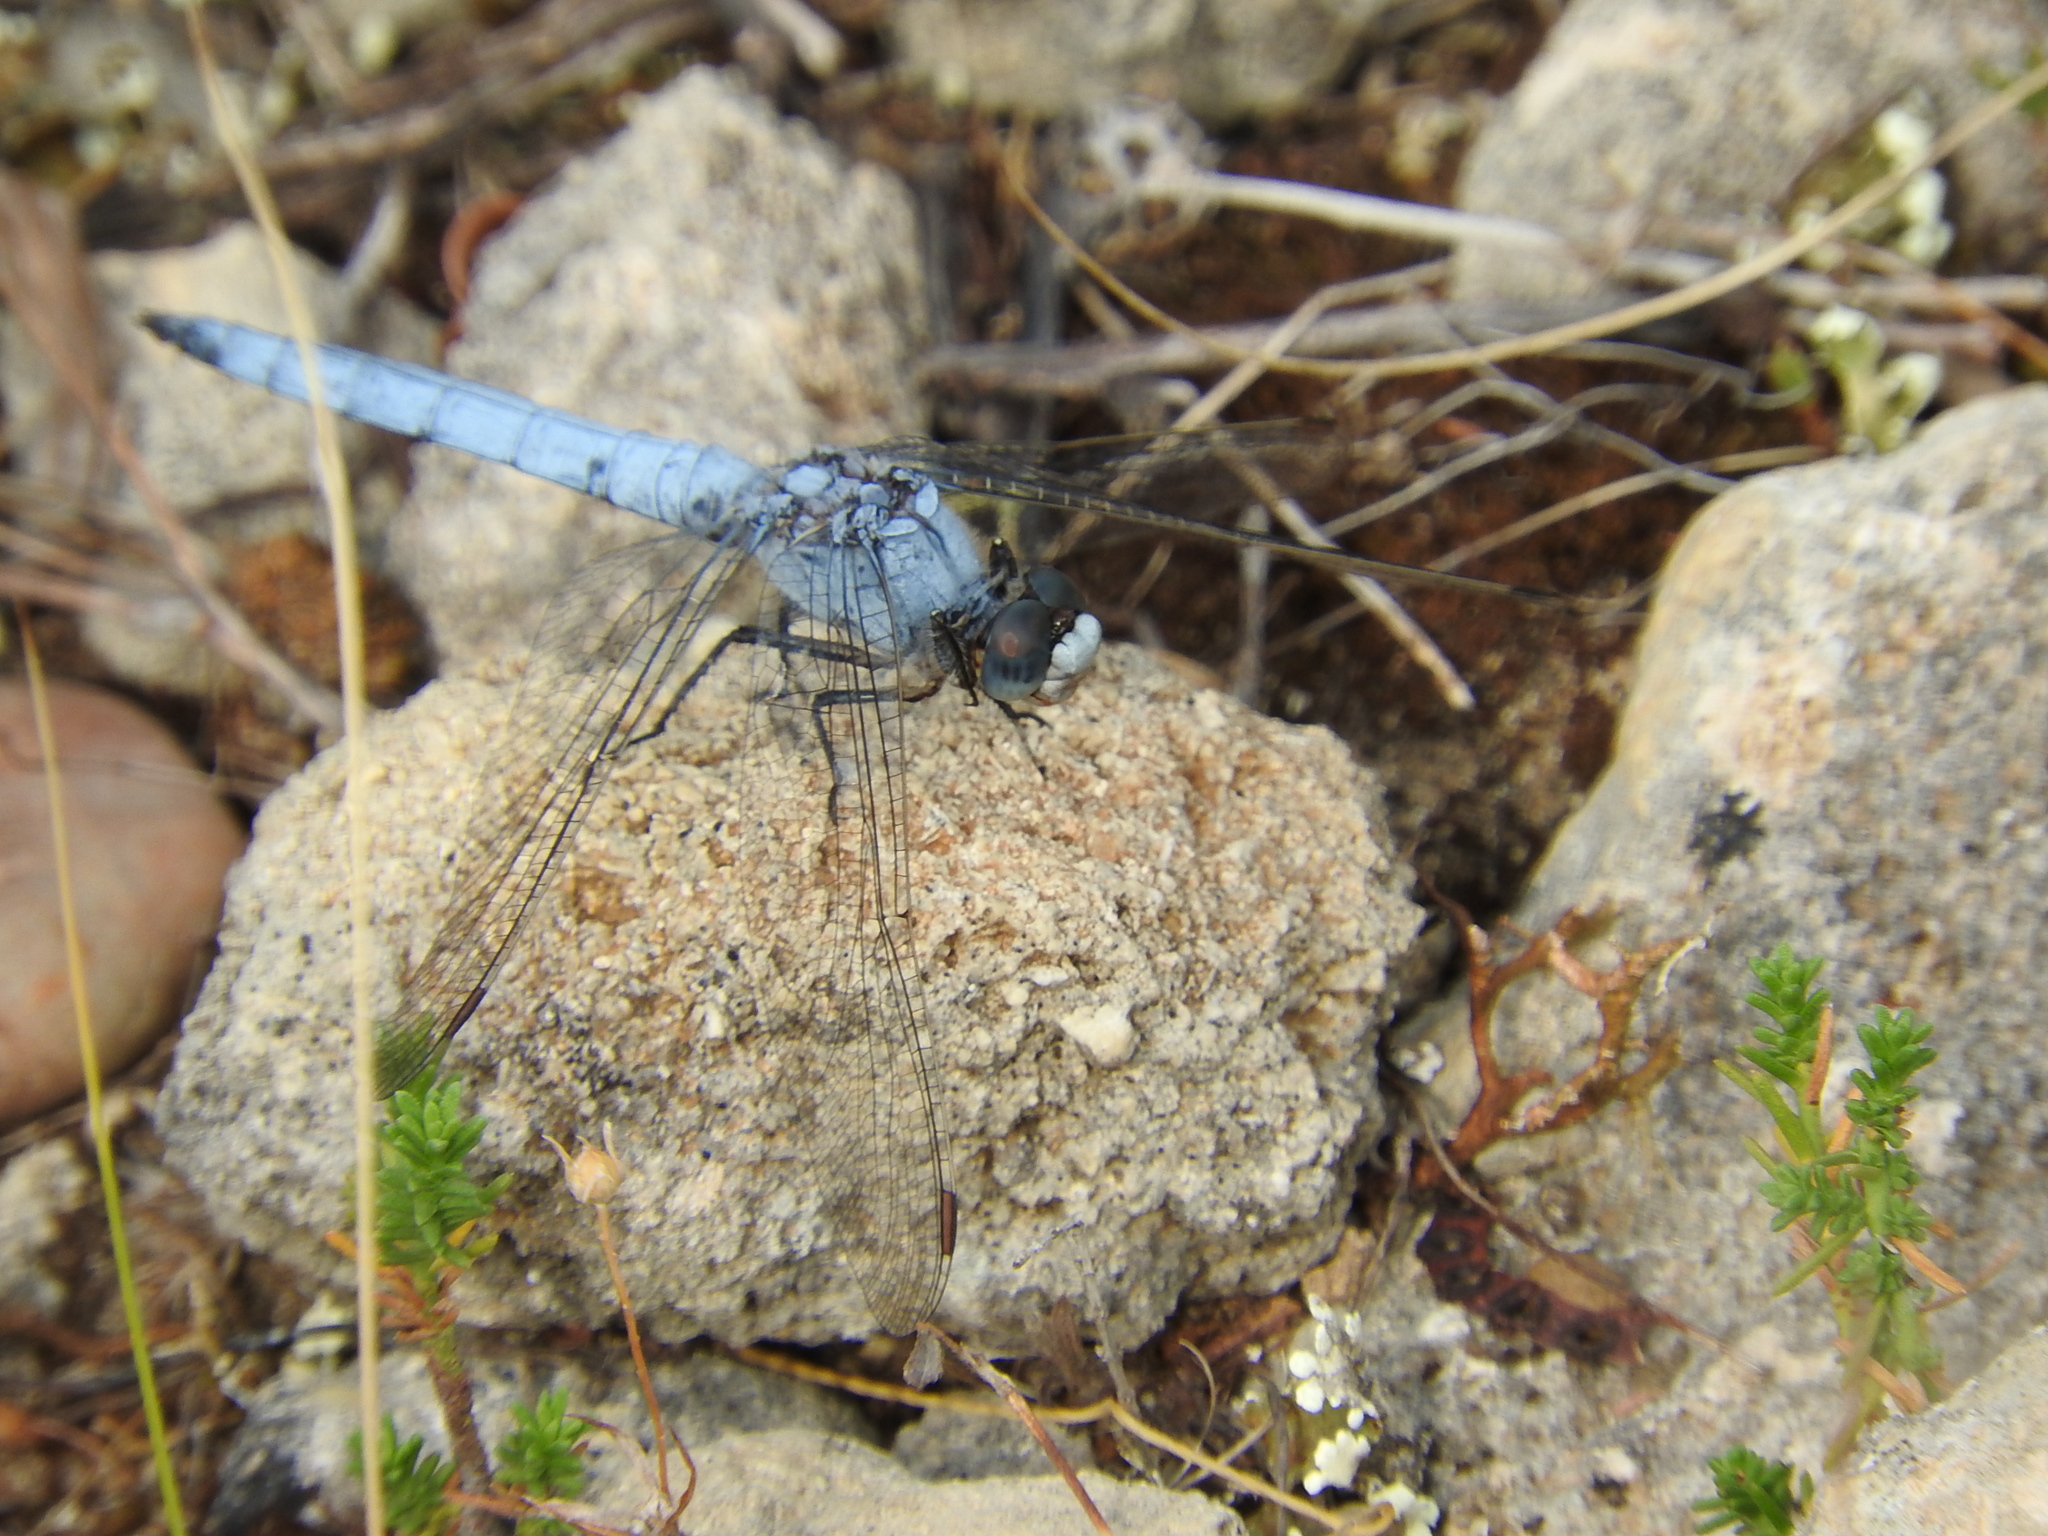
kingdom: Animalia
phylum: Arthropoda
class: Insecta
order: Odonata
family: Libellulidae
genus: Orthetrum
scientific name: Orthetrum brunneum
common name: Southern skimmer
